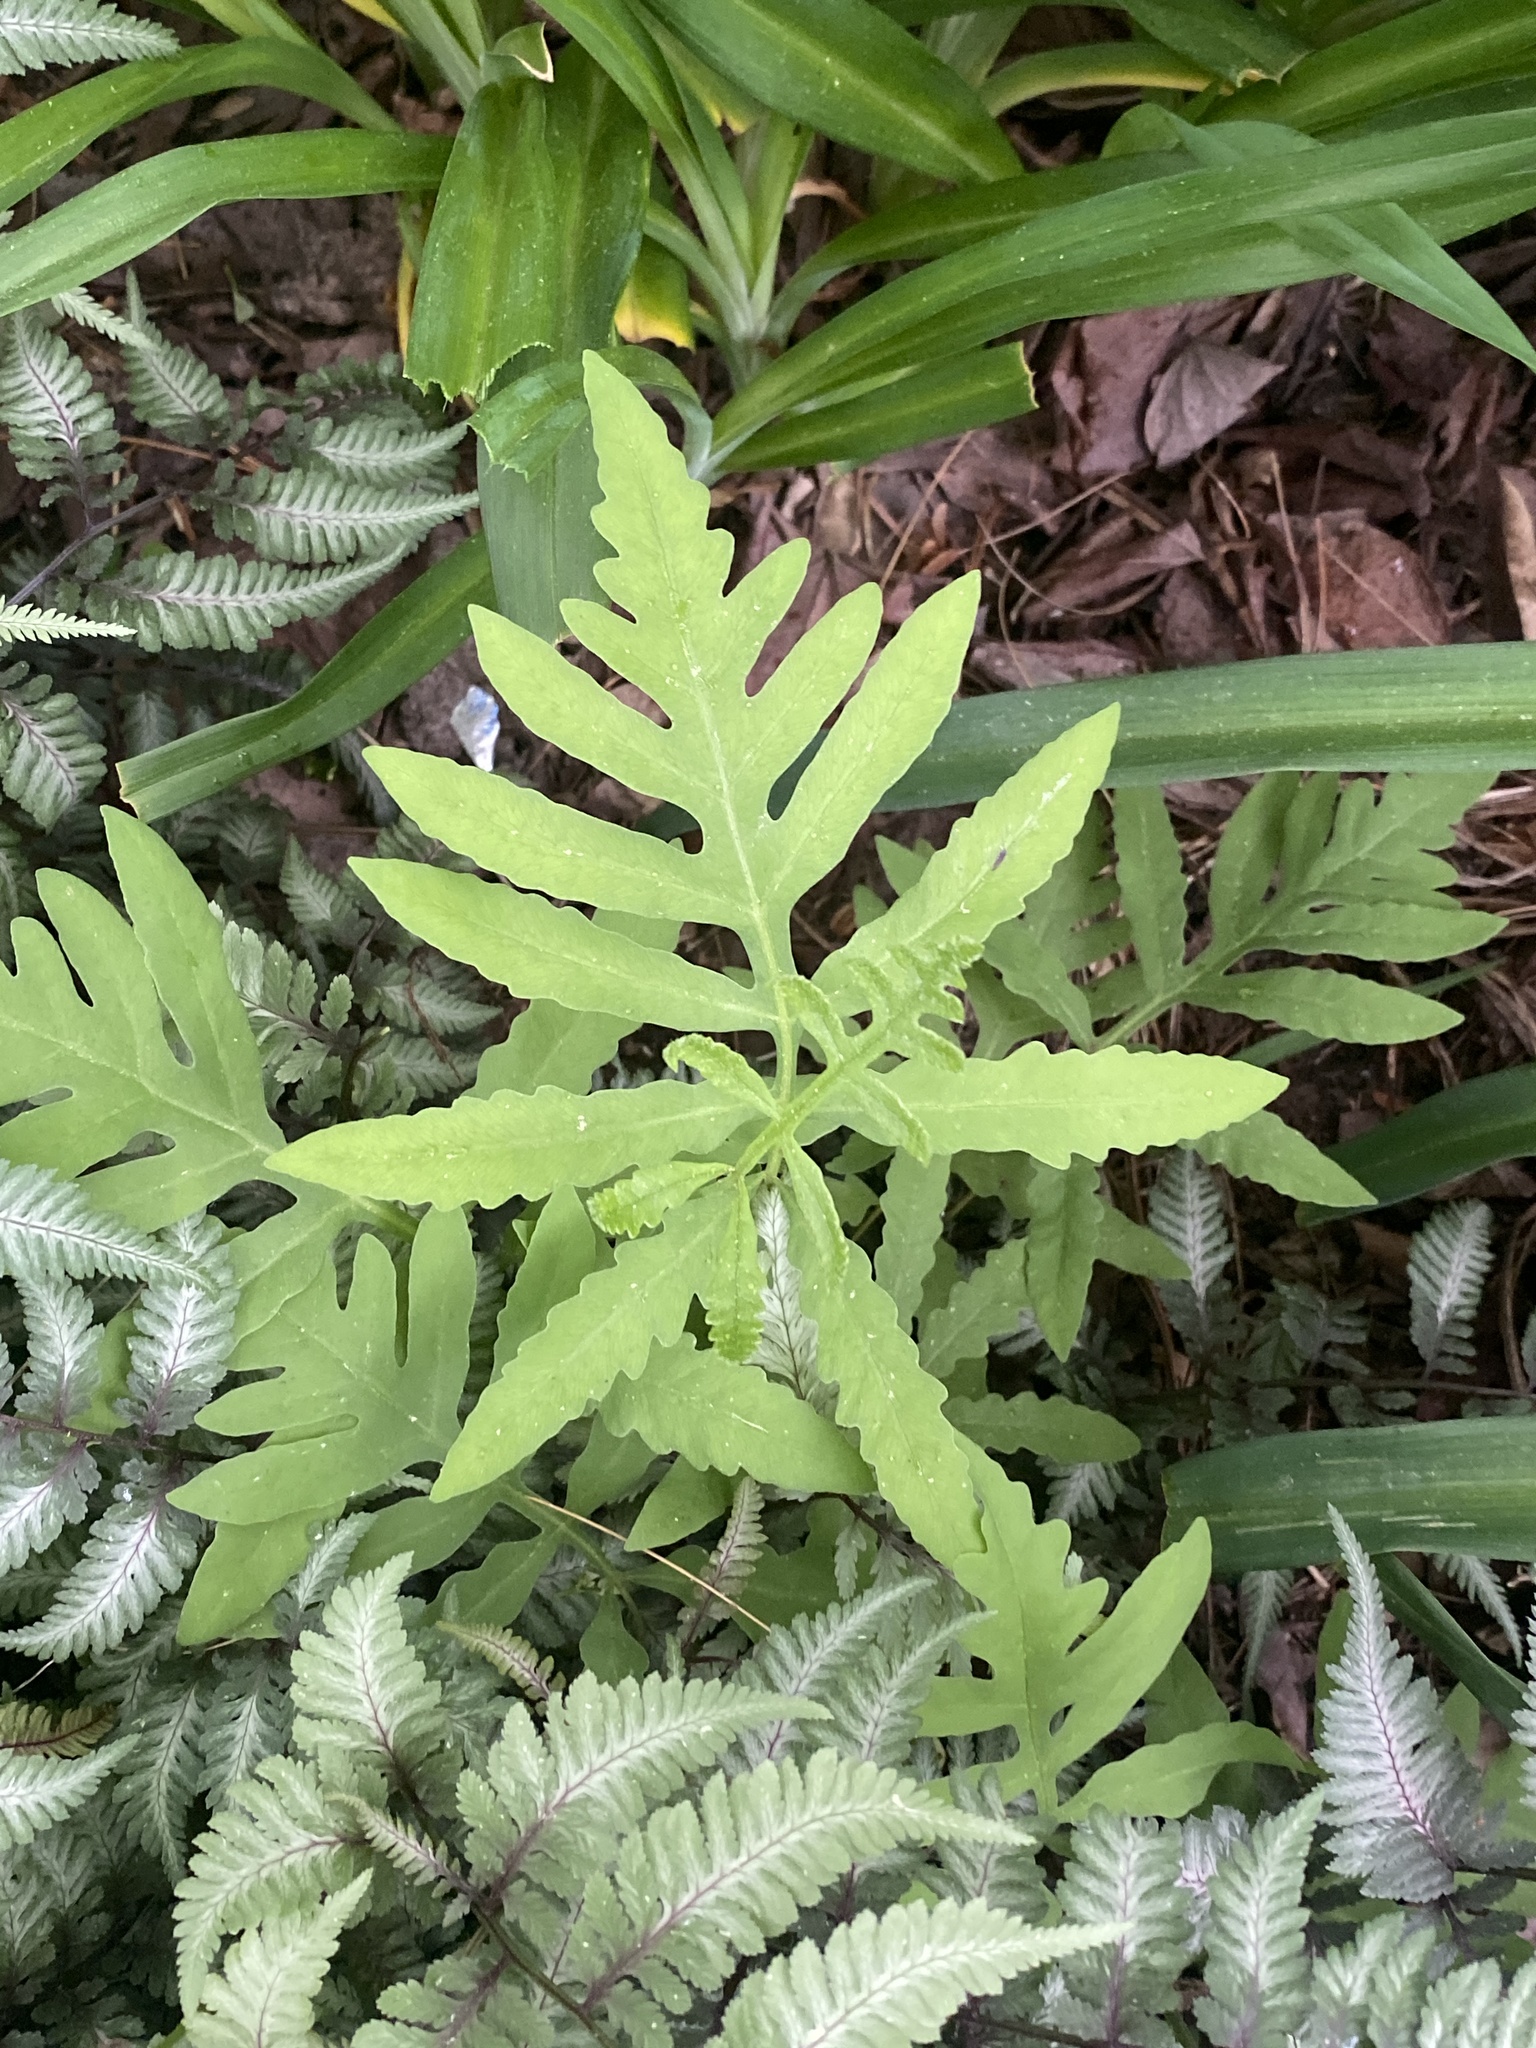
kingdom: Plantae
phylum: Tracheophyta
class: Polypodiopsida
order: Polypodiales
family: Onocleaceae
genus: Onoclea
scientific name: Onoclea sensibilis
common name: Sensitive fern
